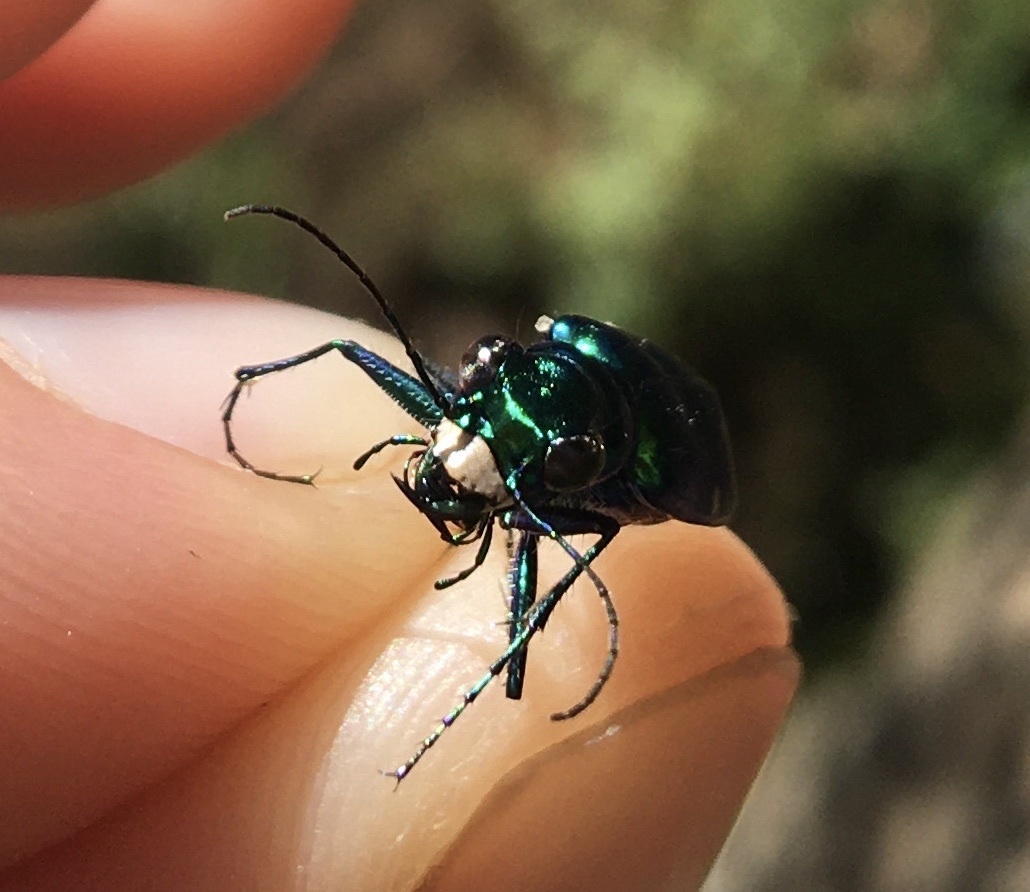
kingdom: Animalia
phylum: Arthropoda
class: Insecta
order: Coleoptera
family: Carabidae
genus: Cicindela
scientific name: Cicindela sexguttata
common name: Six-spotted tiger beetle
